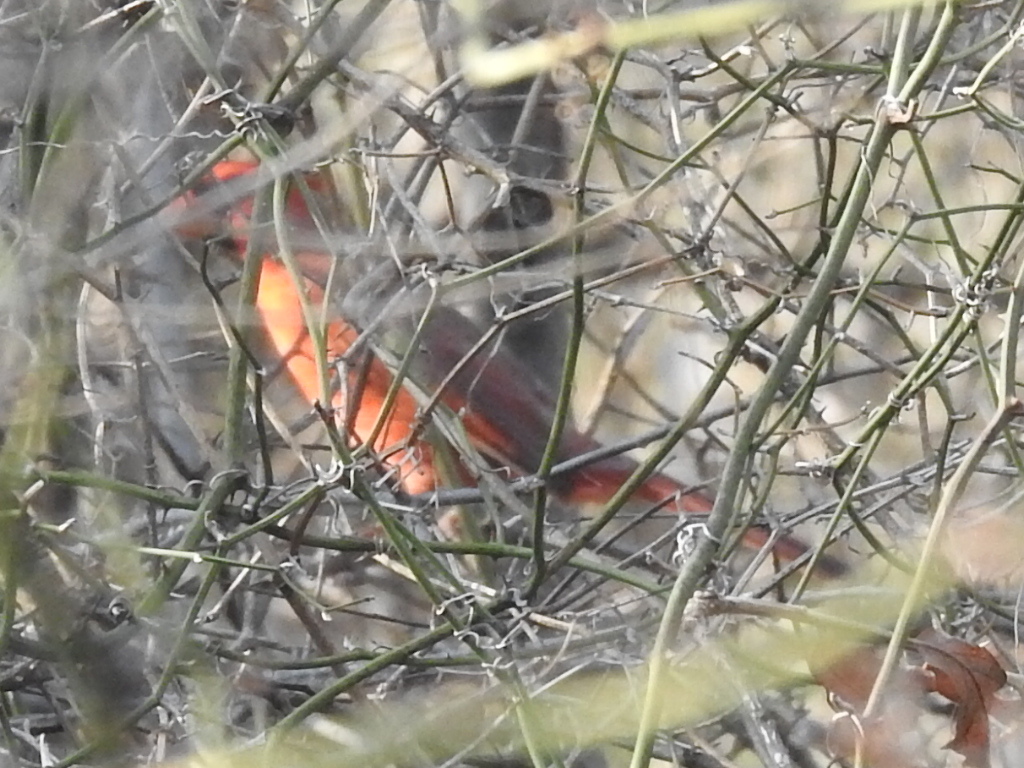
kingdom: Animalia
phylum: Chordata
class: Aves
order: Passeriformes
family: Cardinalidae
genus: Cardinalis
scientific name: Cardinalis cardinalis
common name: Northern cardinal
